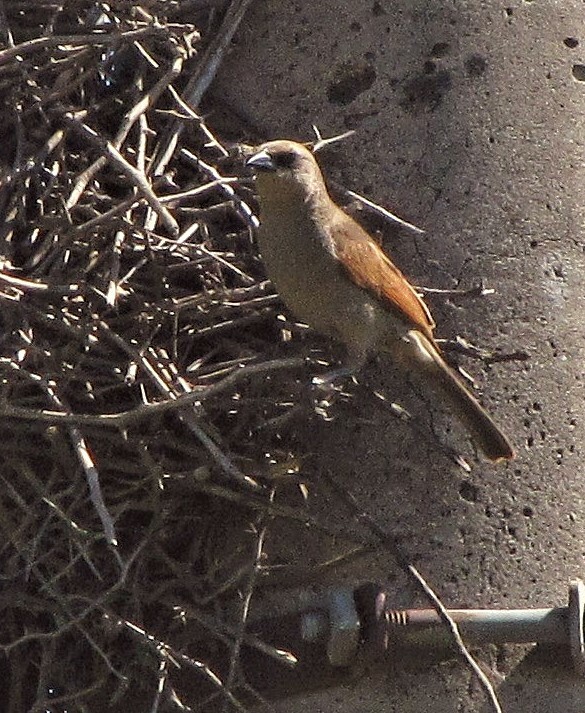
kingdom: Animalia
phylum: Chordata
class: Aves
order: Passeriformes
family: Icteridae
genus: Agelaioides
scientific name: Agelaioides badius
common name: Baywing
